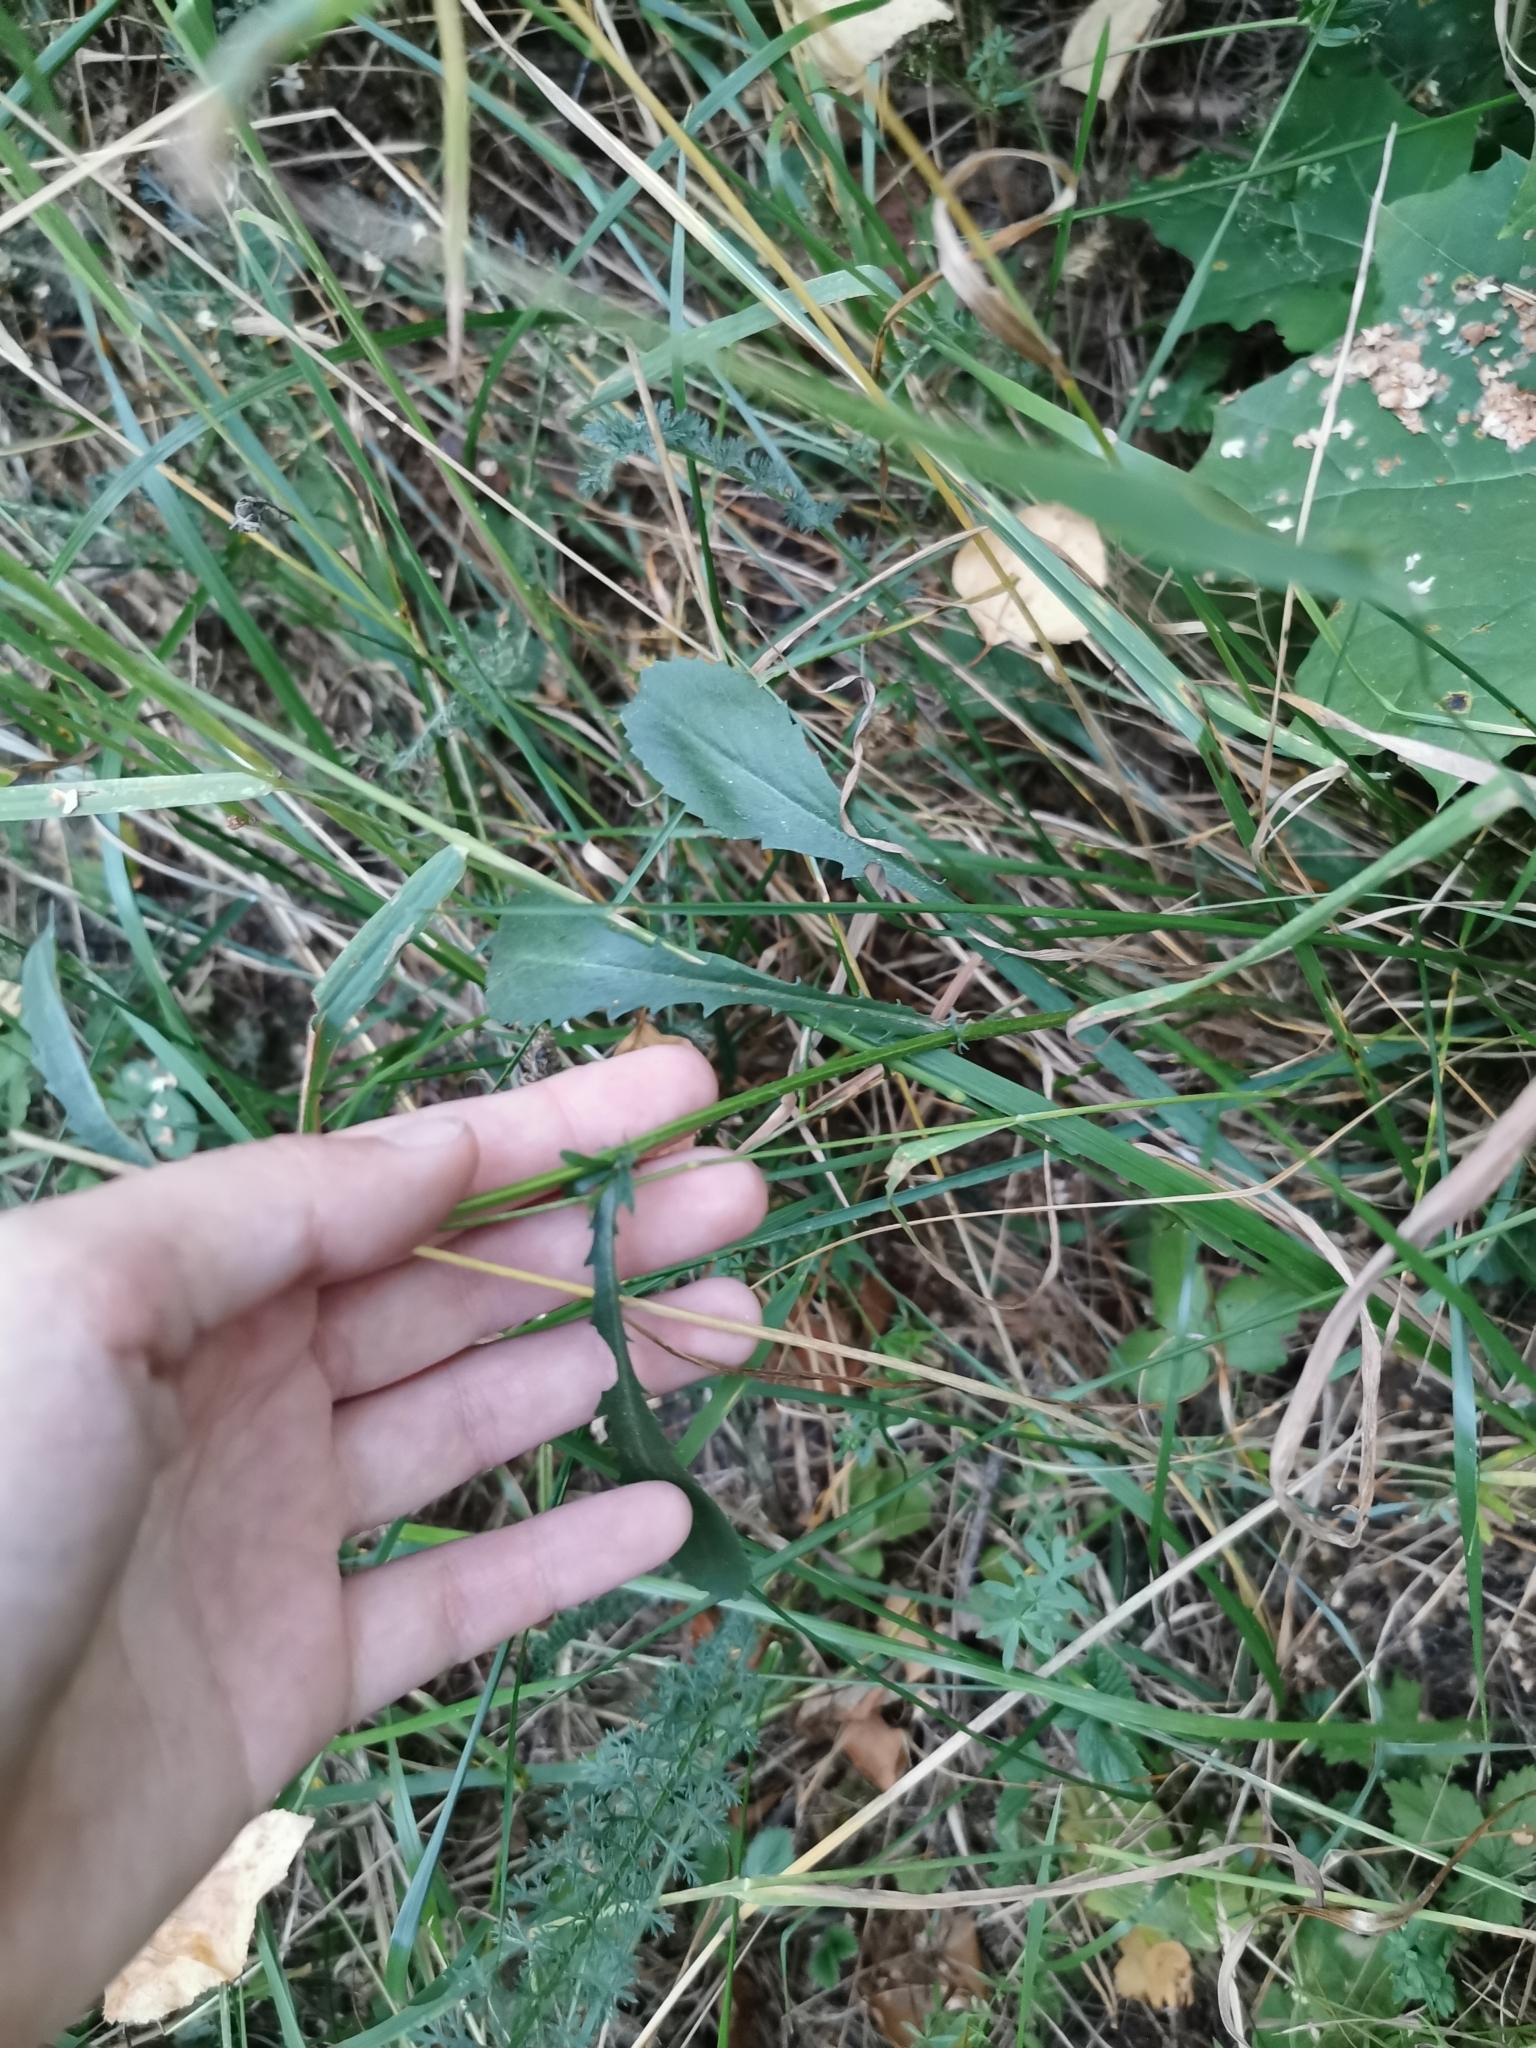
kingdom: Plantae
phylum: Tracheophyta
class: Magnoliopsida
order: Asterales
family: Asteraceae
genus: Leucanthemum
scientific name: Leucanthemum vulgare
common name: Oxeye daisy
